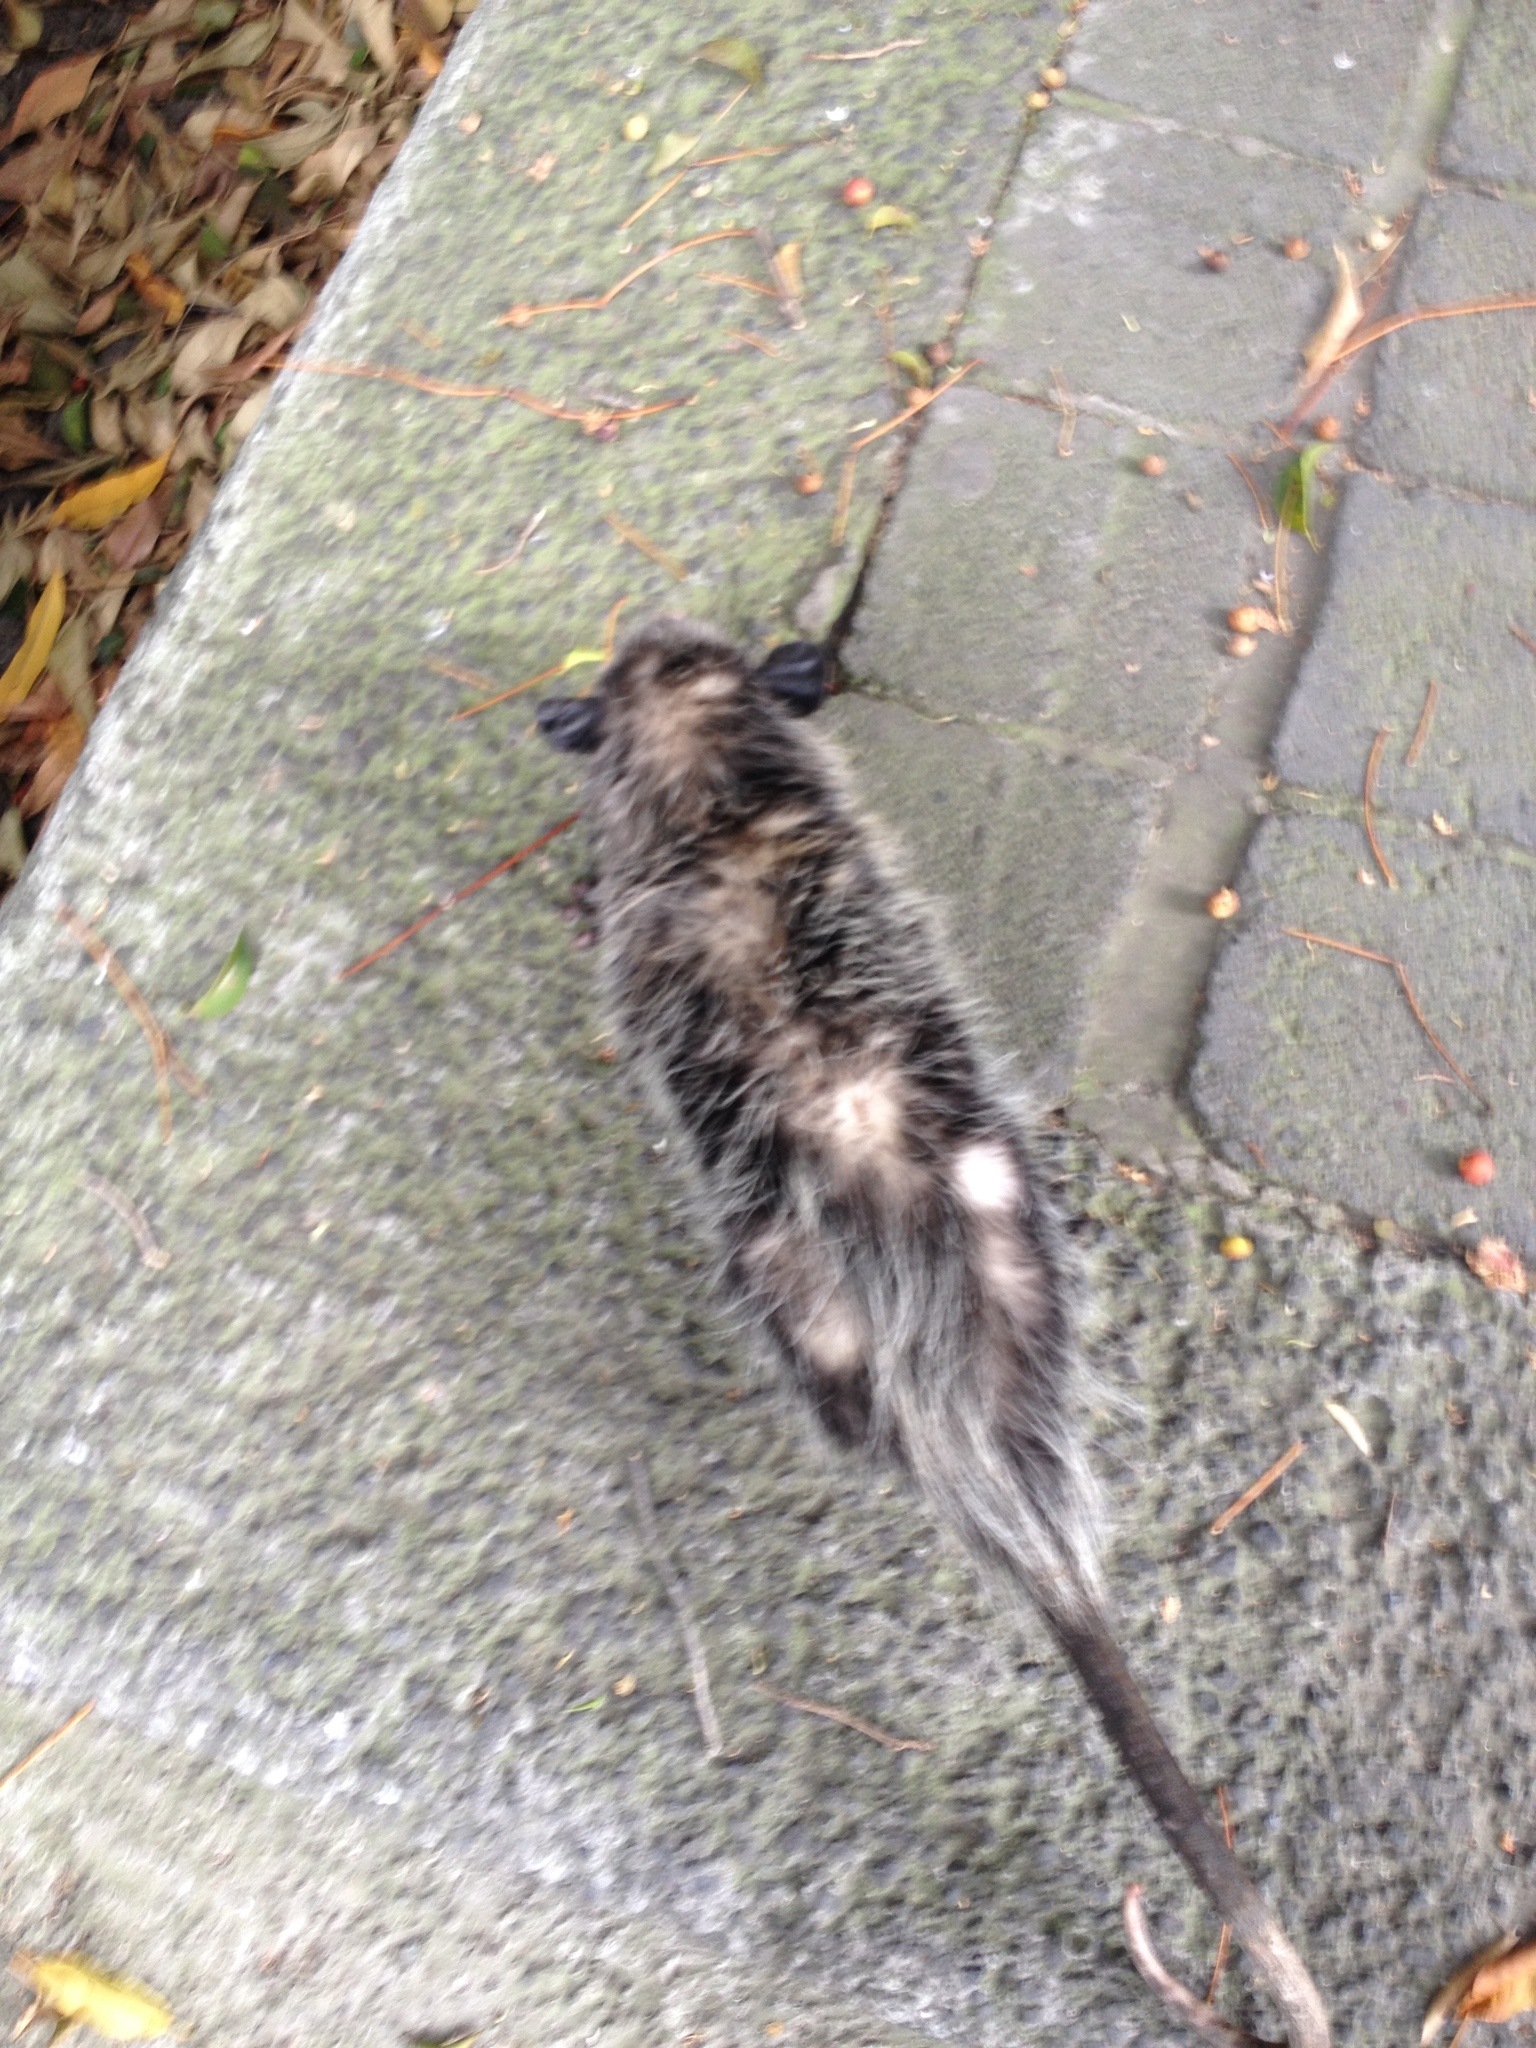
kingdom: Animalia
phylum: Chordata
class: Mammalia
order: Didelphimorphia
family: Didelphidae
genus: Didelphis
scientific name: Didelphis virginiana
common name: Virginia opossum
